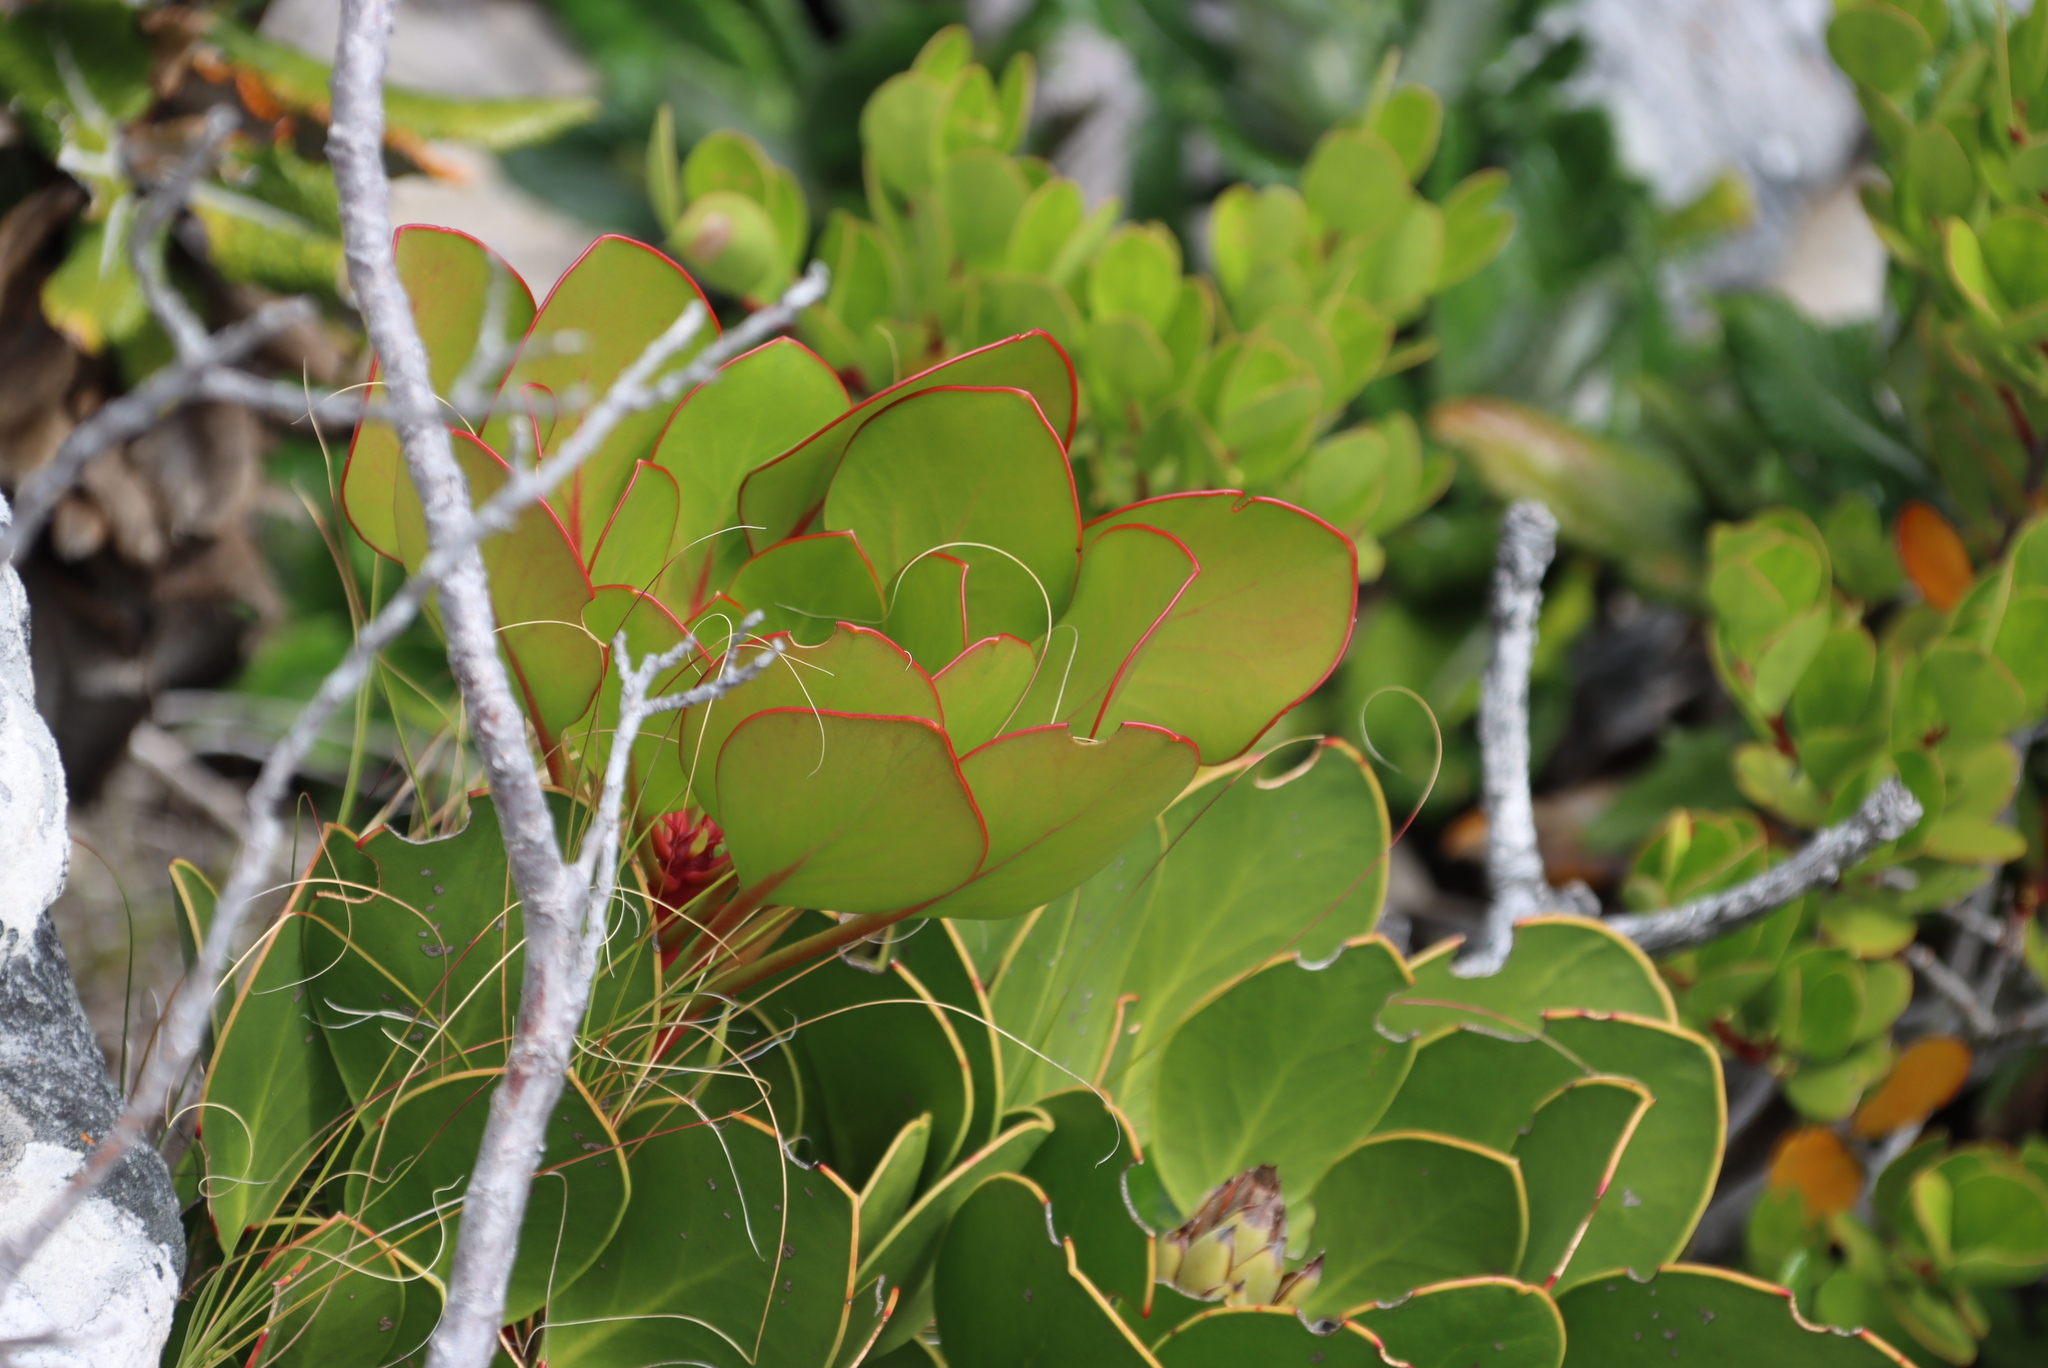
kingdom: Plantae
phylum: Tracheophyta
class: Magnoliopsida
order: Proteales
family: Proteaceae
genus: Protea
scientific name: Protea cynaroides
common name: King protea
